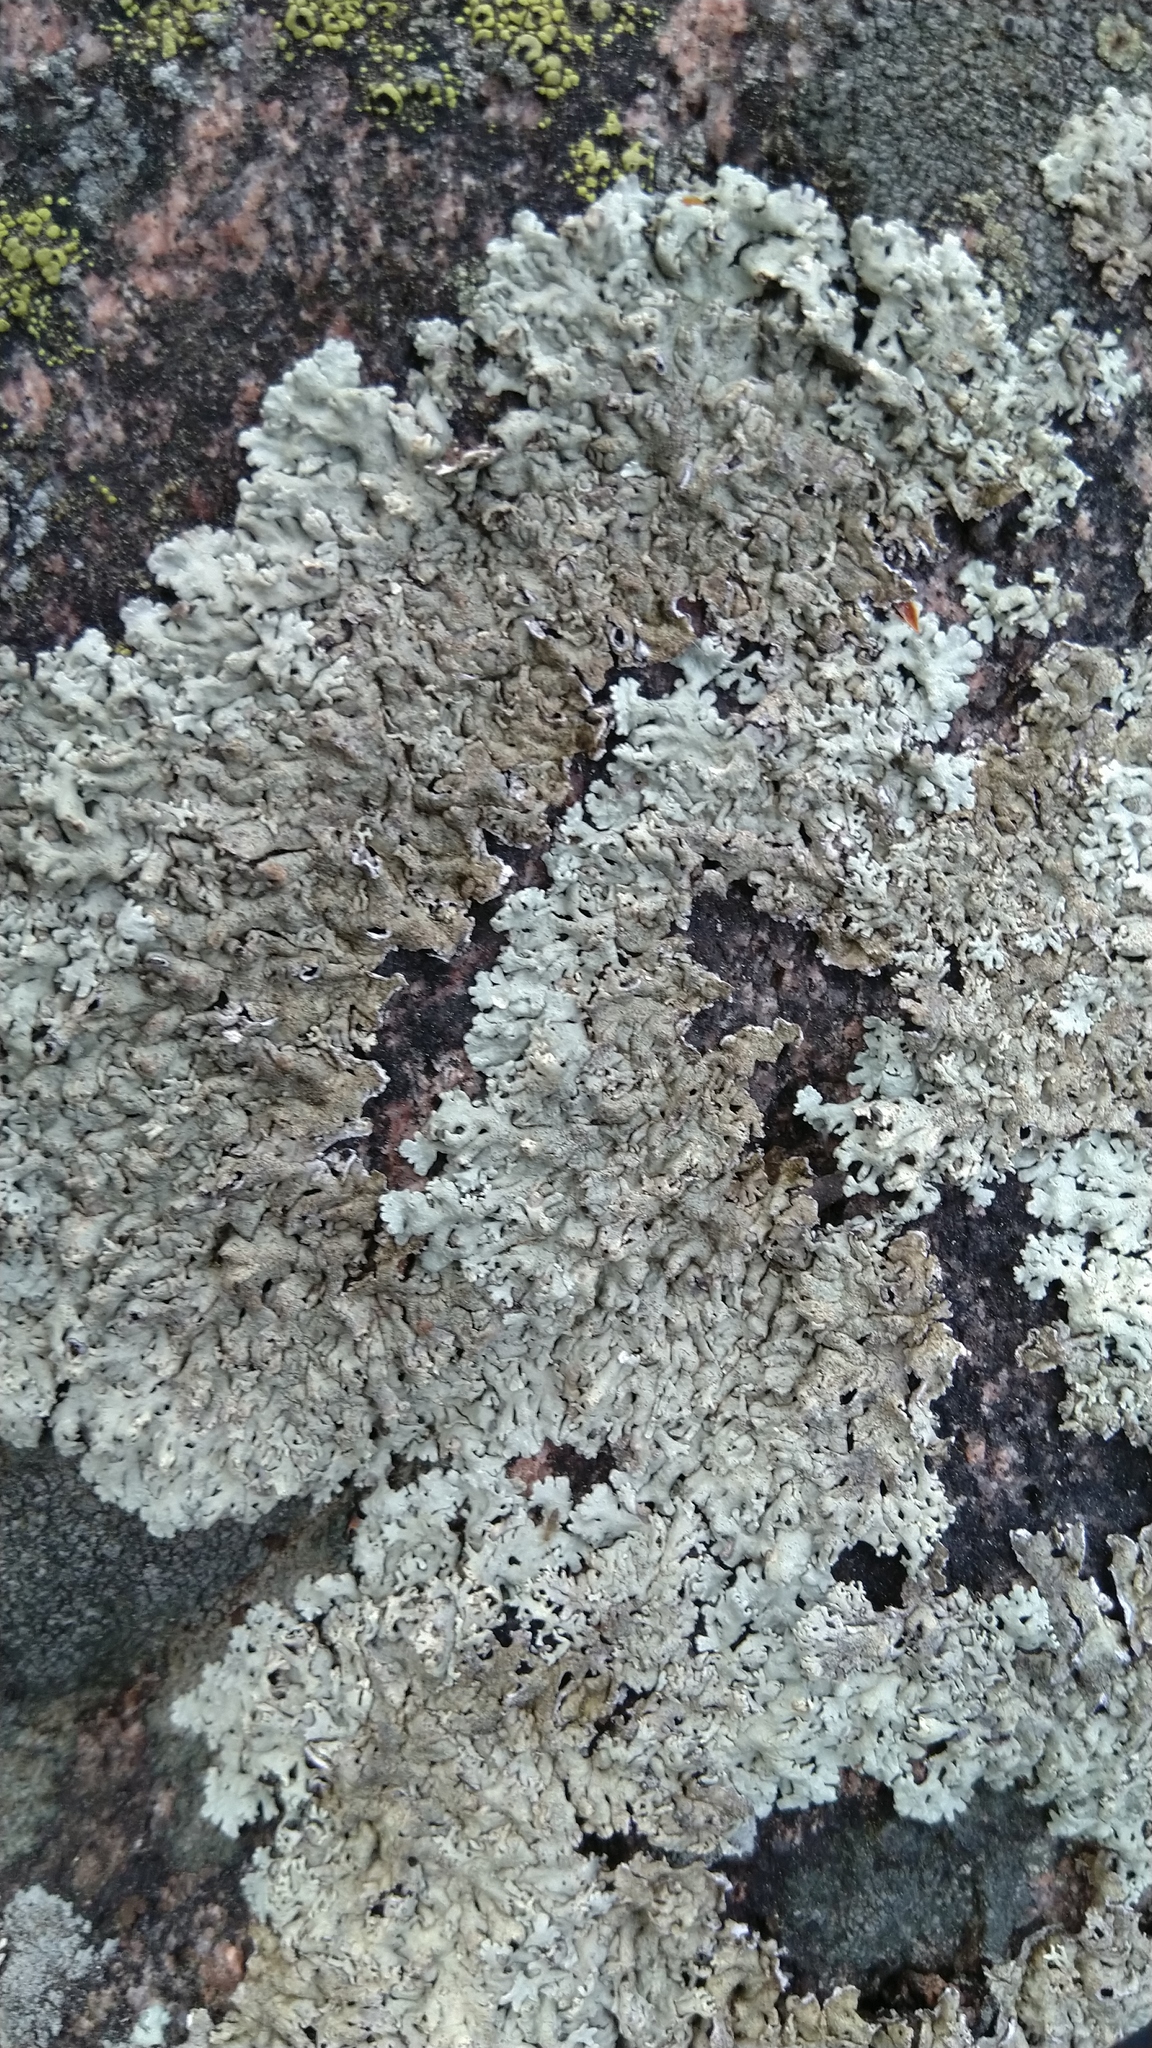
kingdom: Fungi
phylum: Ascomycota
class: Lecanoromycetes
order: Lecanorales
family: Parmeliaceae
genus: Arctoparmelia
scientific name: Arctoparmelia centrifuga
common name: Concentric ring lichen
